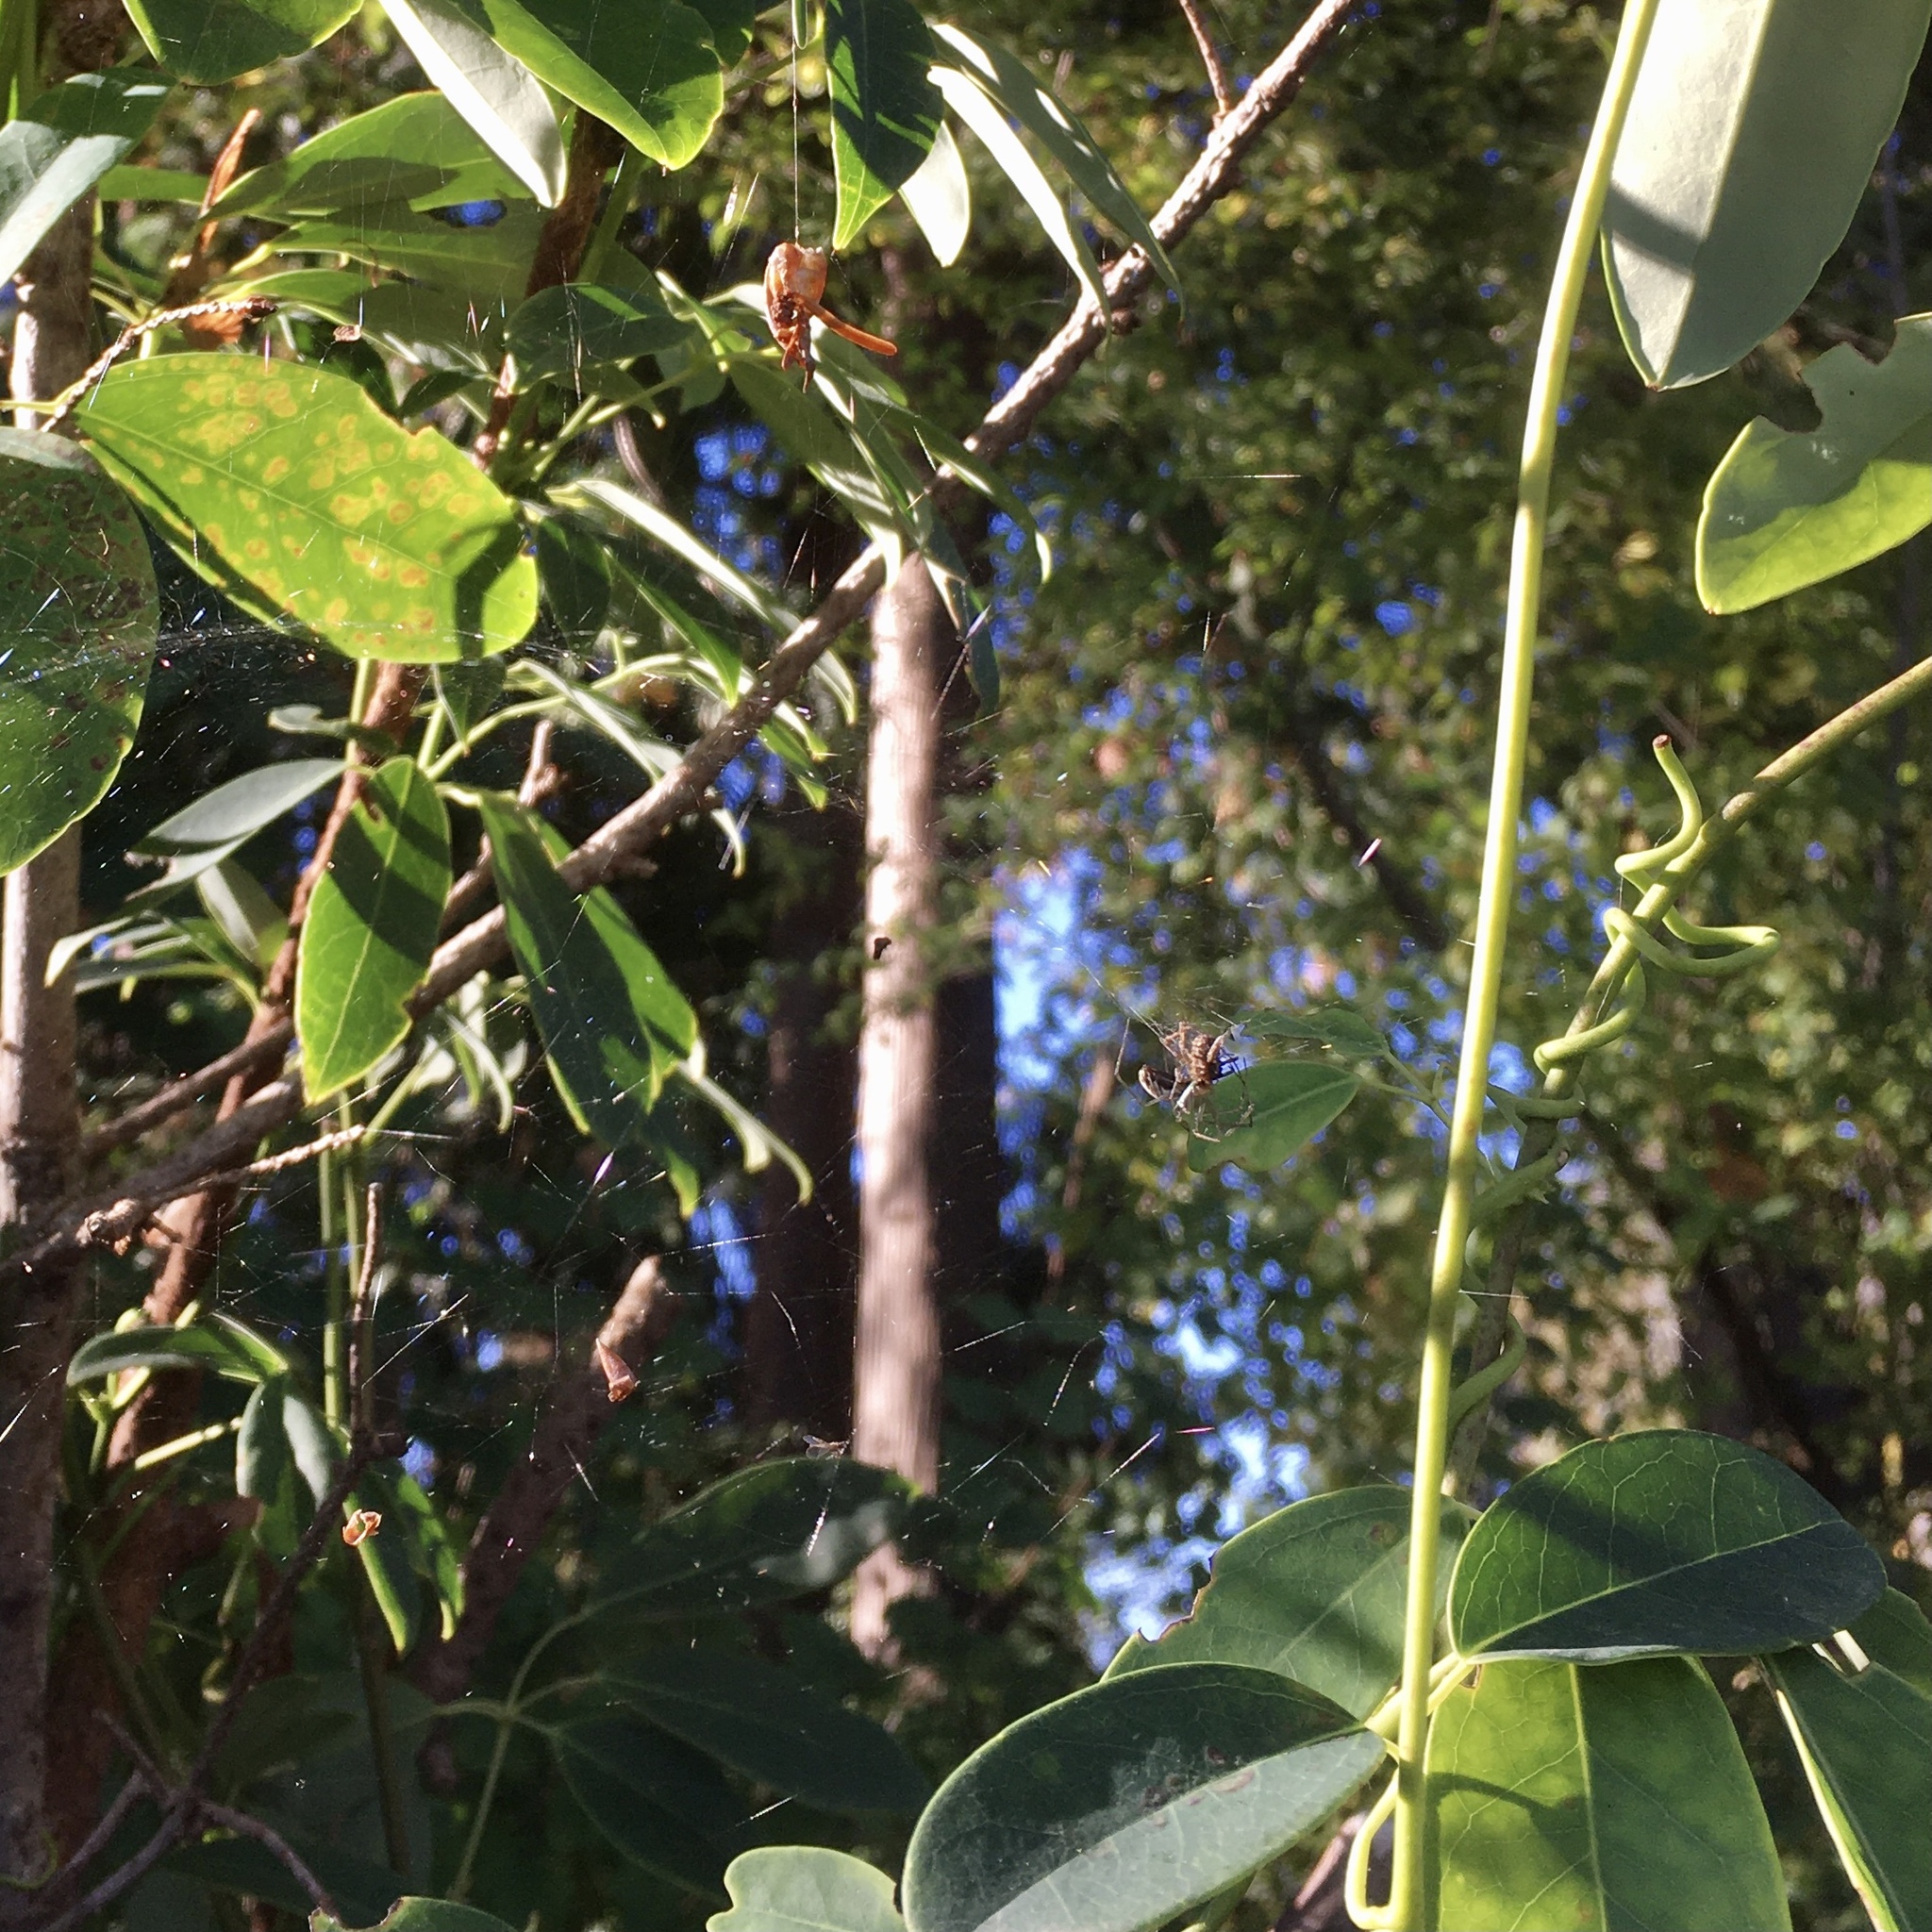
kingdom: Animalia
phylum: Arthropoda
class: Arachnida
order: Araneae
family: Linyphiidae
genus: Neriene
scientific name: Neriene litigiosa
